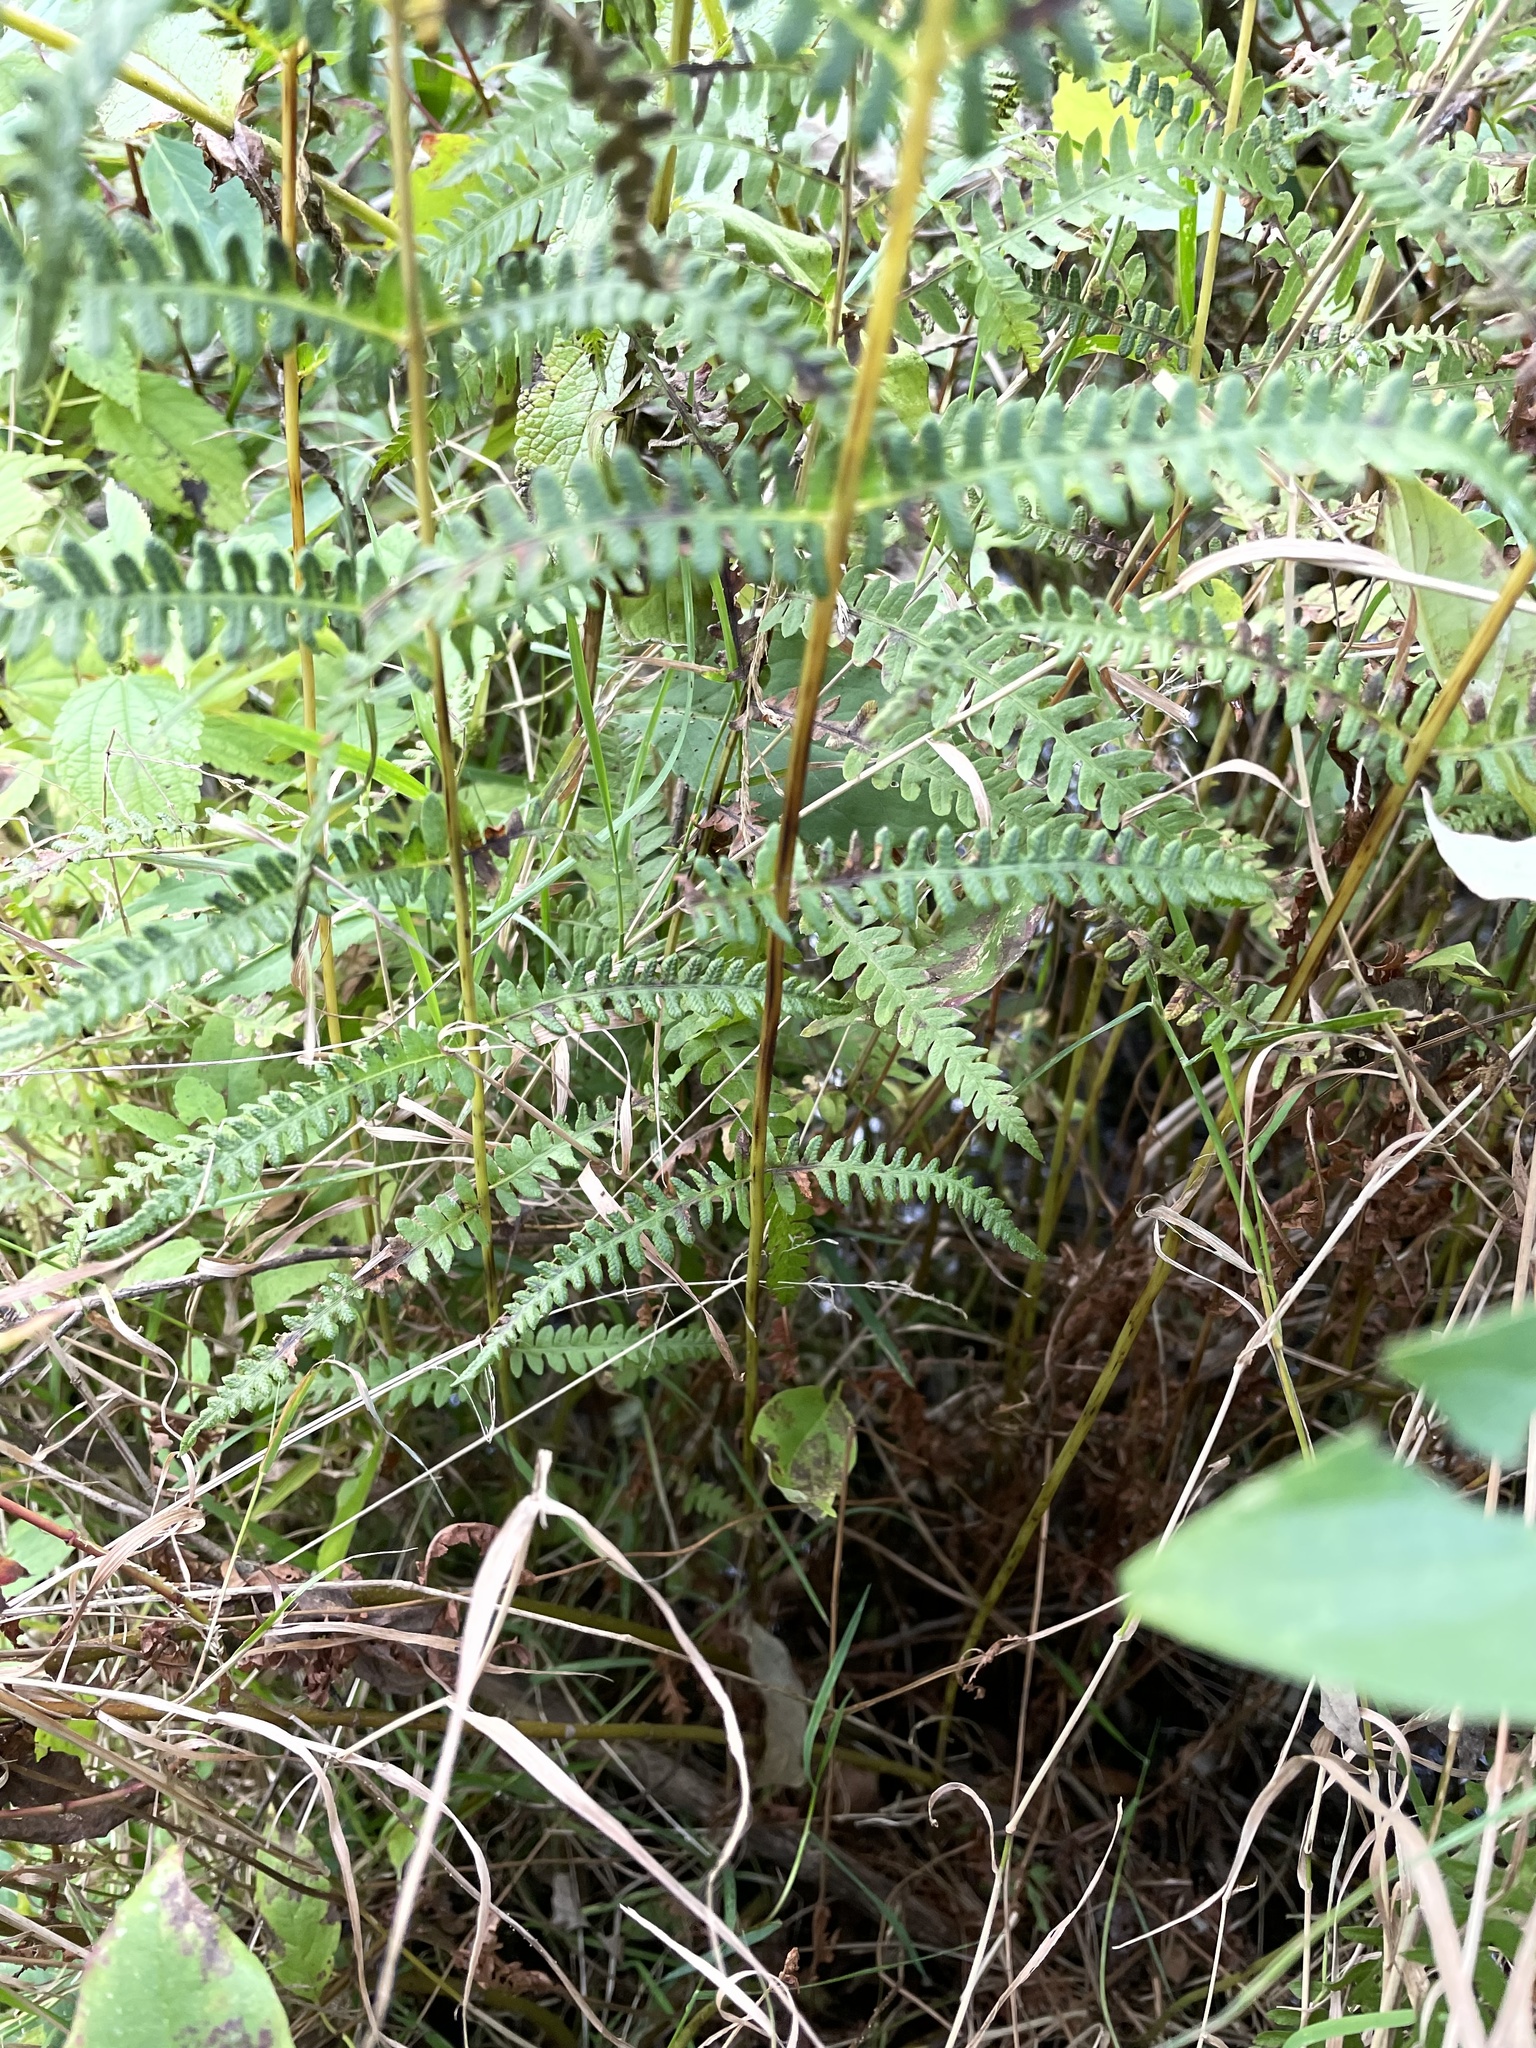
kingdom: Plantae
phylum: Tracheophyta
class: Polypodiopsida
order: Polypodiales
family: Thelypteridaceae
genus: Thelypteris
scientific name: Thelypteris palustris
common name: Marsh fern
